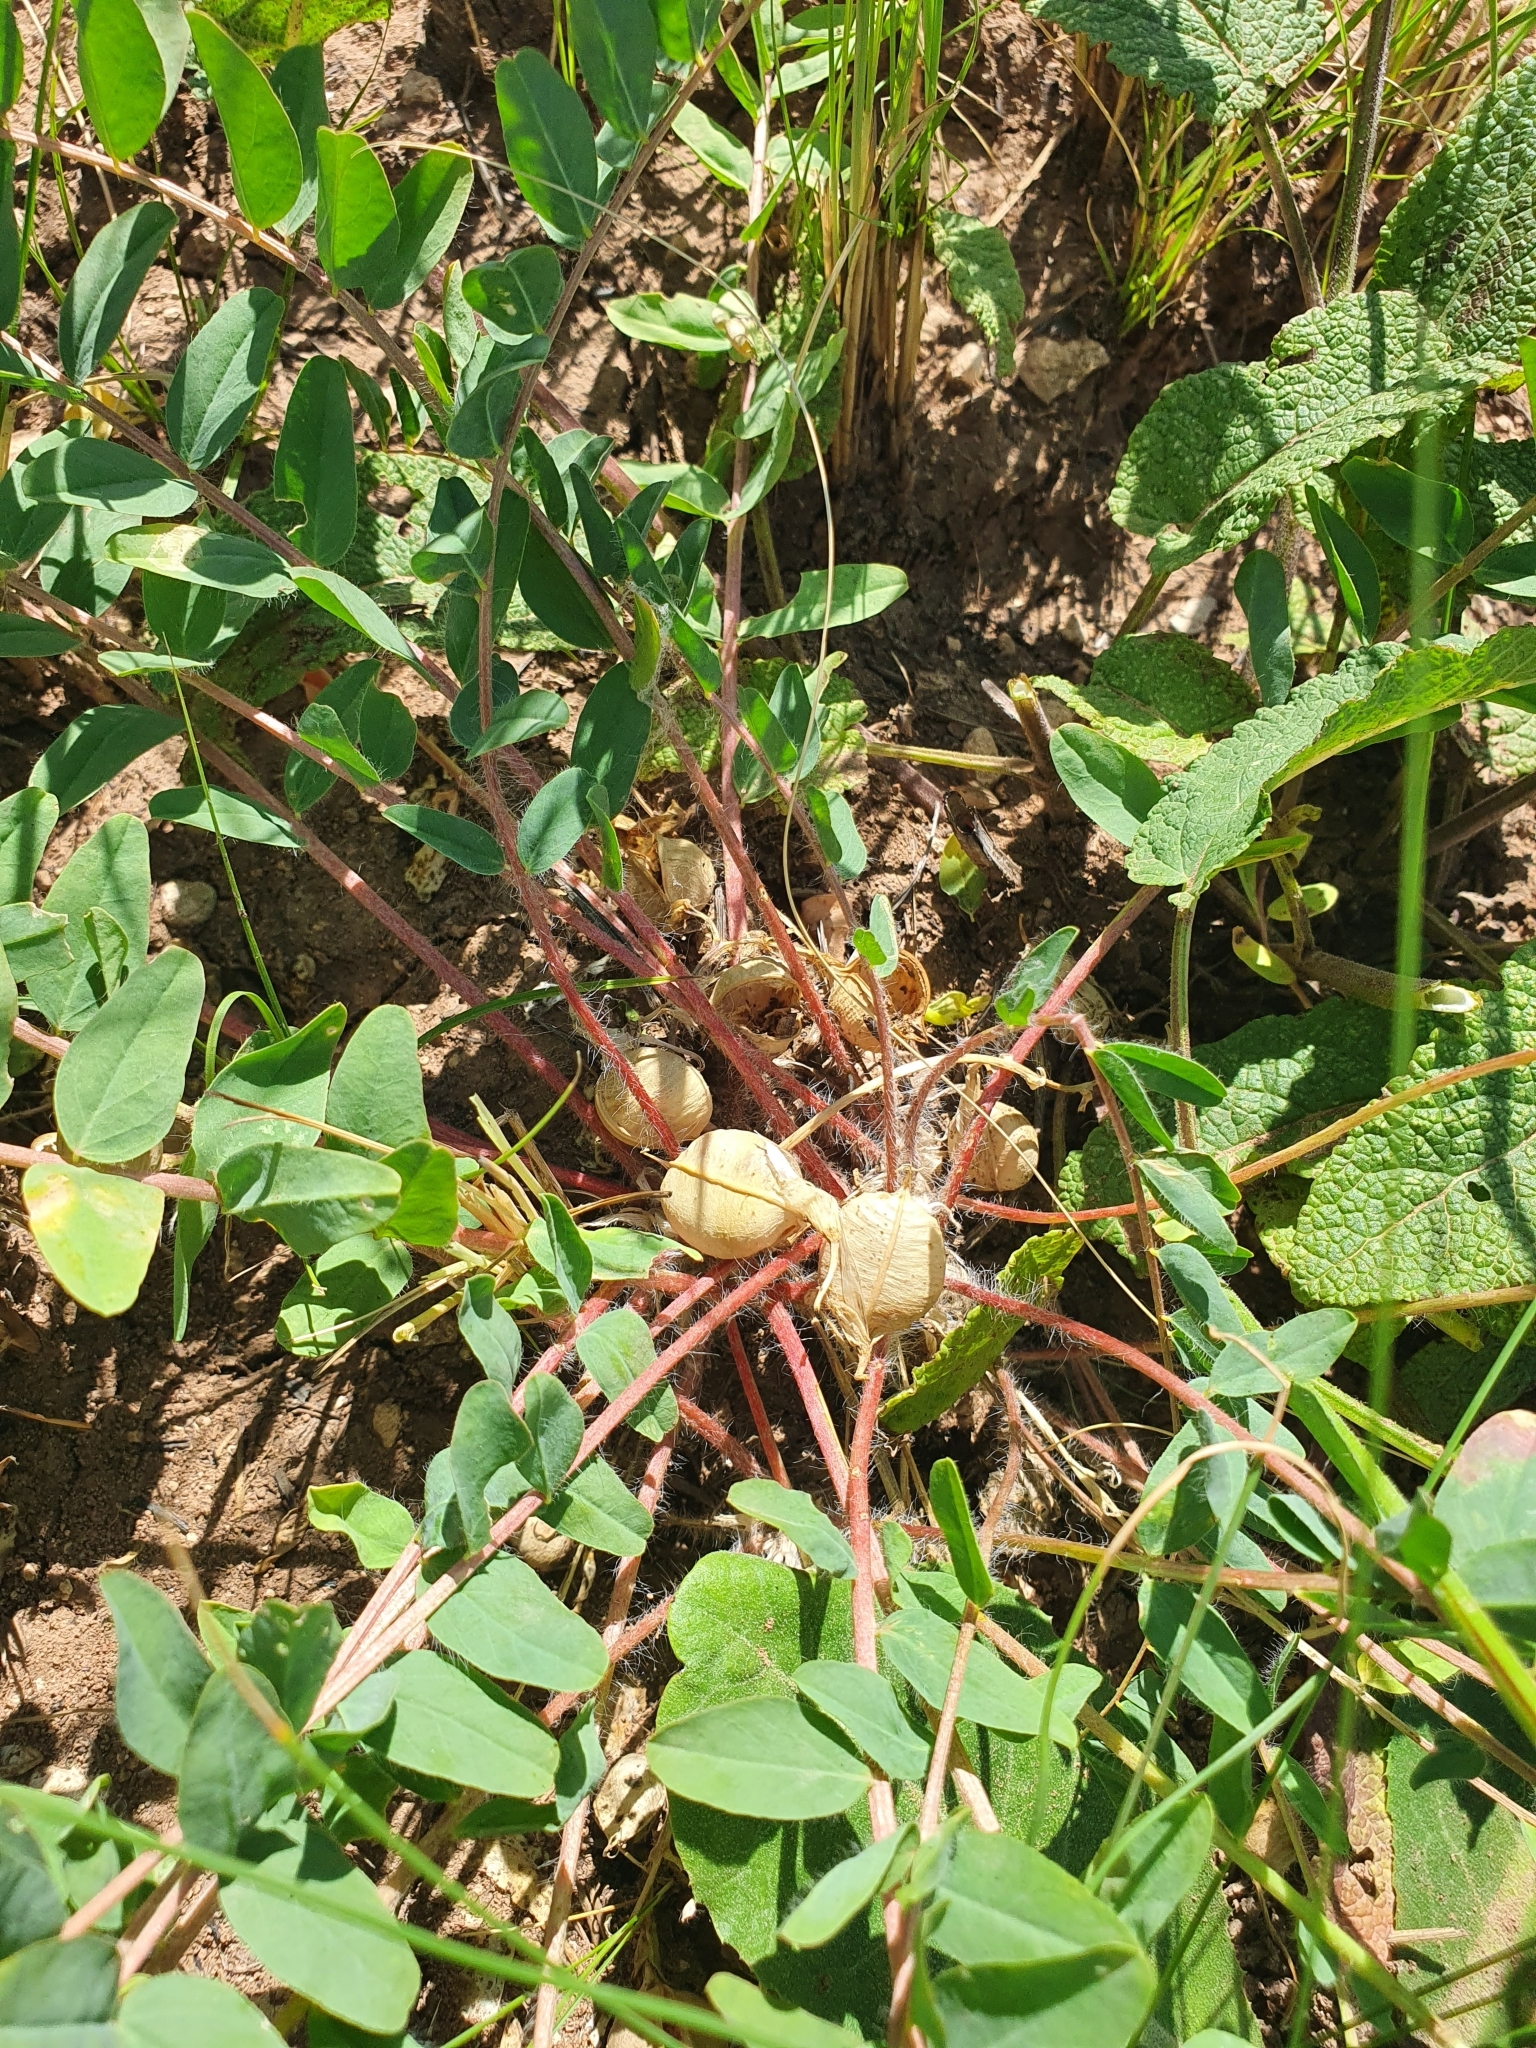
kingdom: Plantae
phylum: Tracheophyta
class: Magnoliopsida
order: Fabales
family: Fabaceae
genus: Astragalus
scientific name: Astragalus wolgensis
